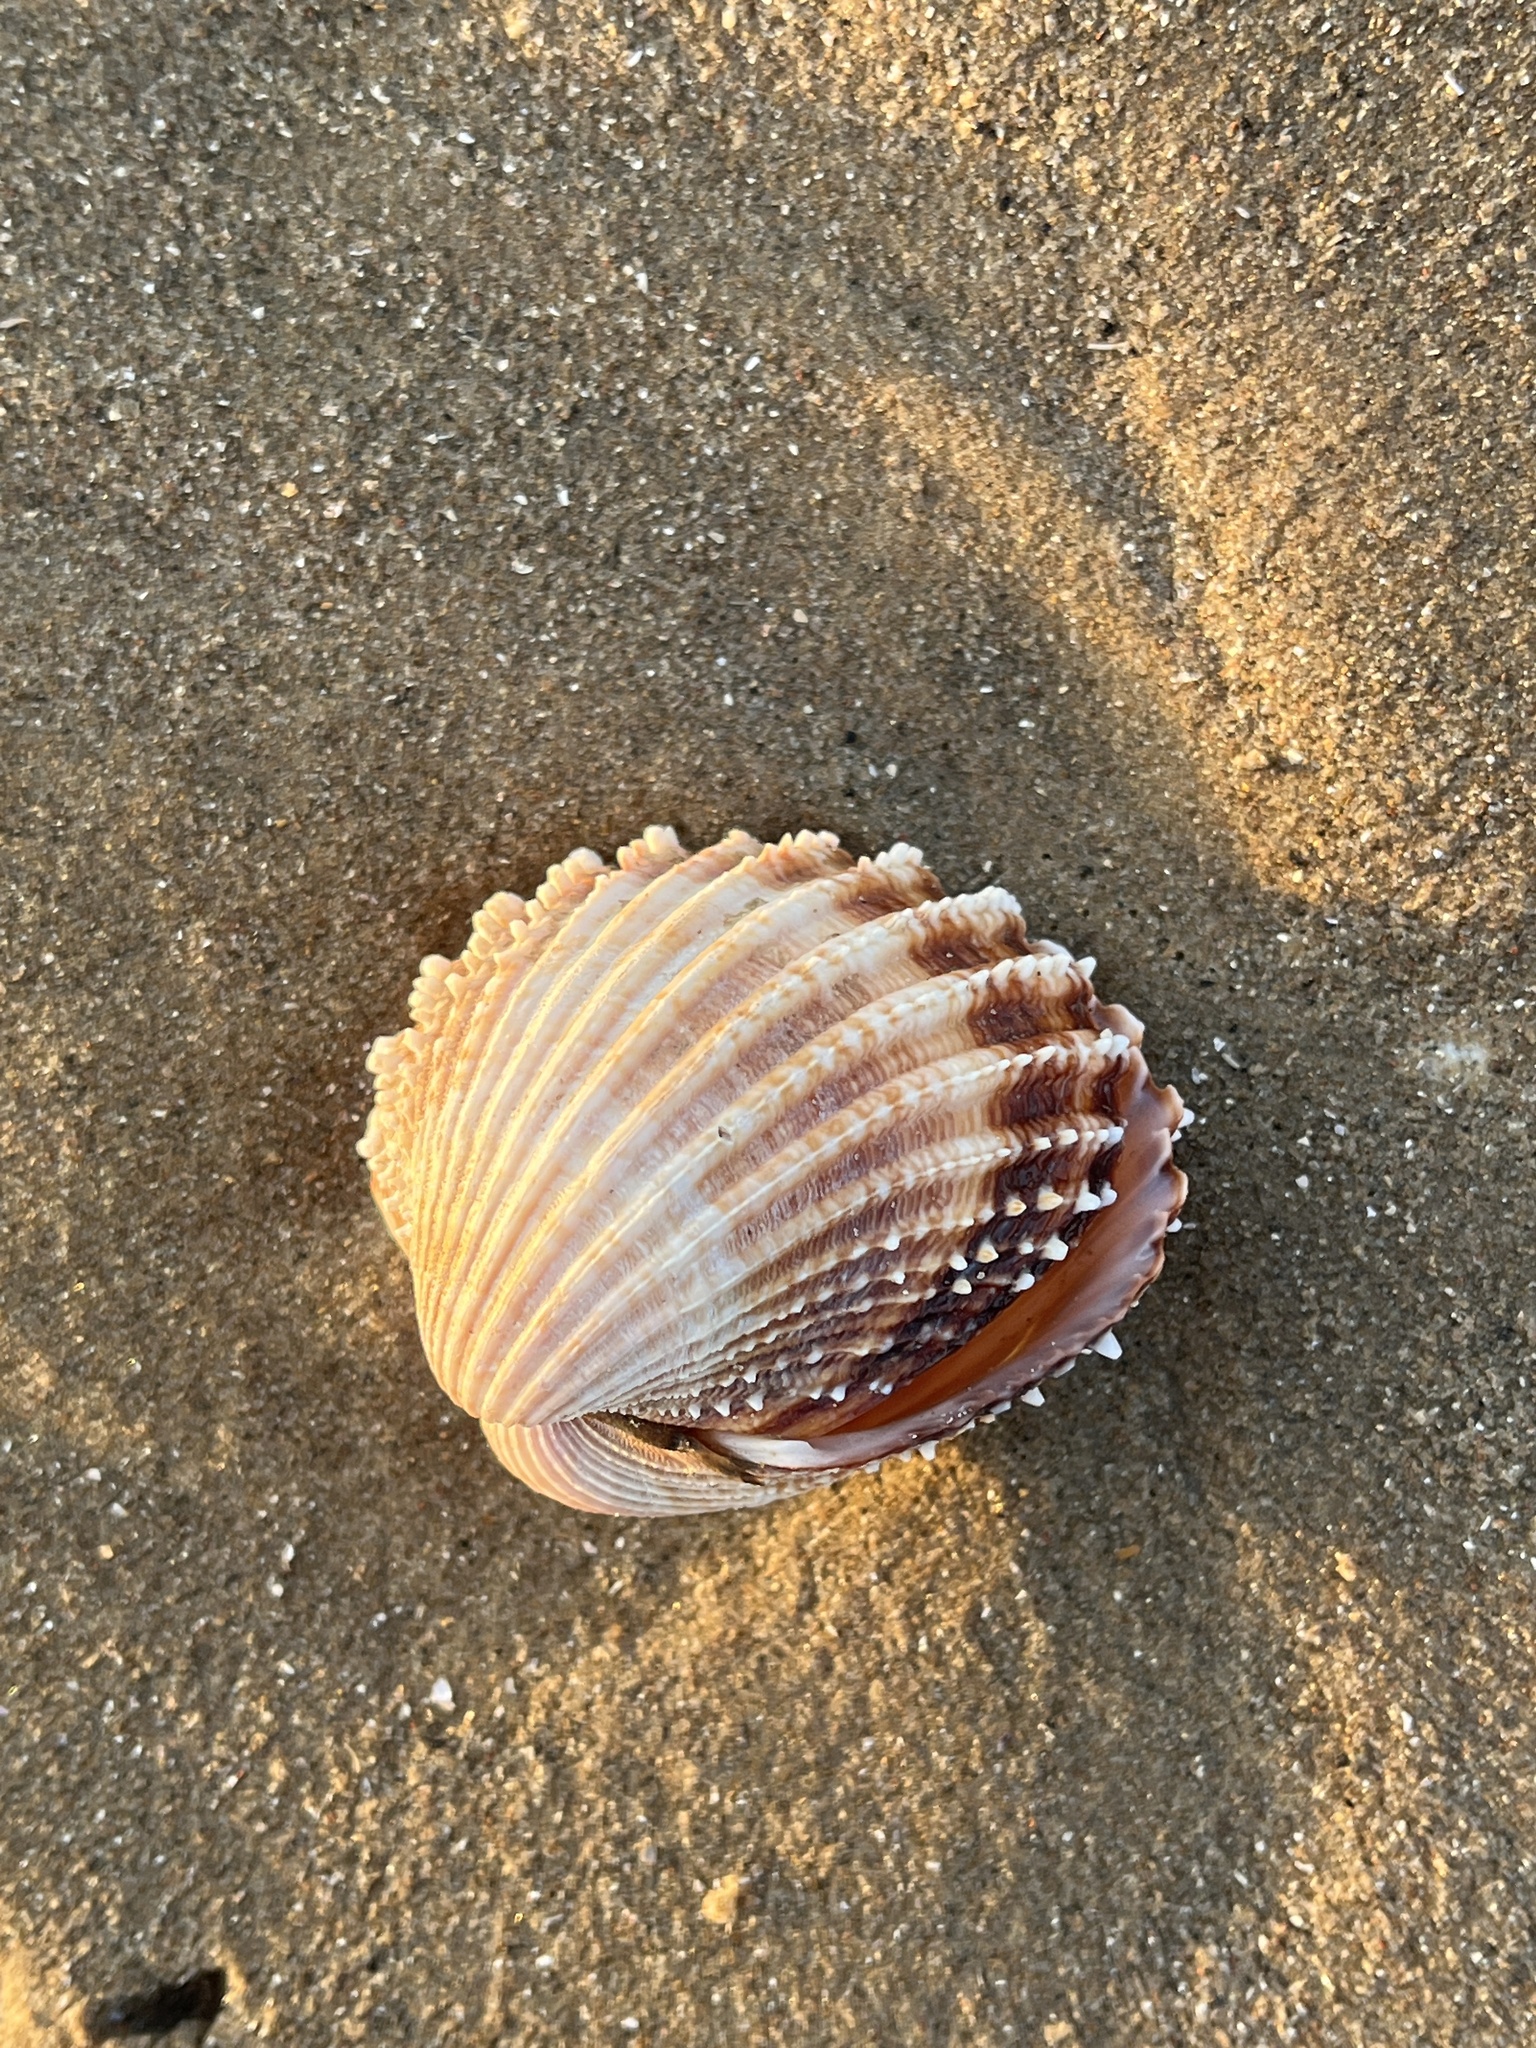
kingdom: Animalia
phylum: Mollusca
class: Bivalvia
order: Cardiida
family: Cardiidae
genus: Acanthocardia
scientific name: Acanthocardia echinata
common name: Prickly cockle
